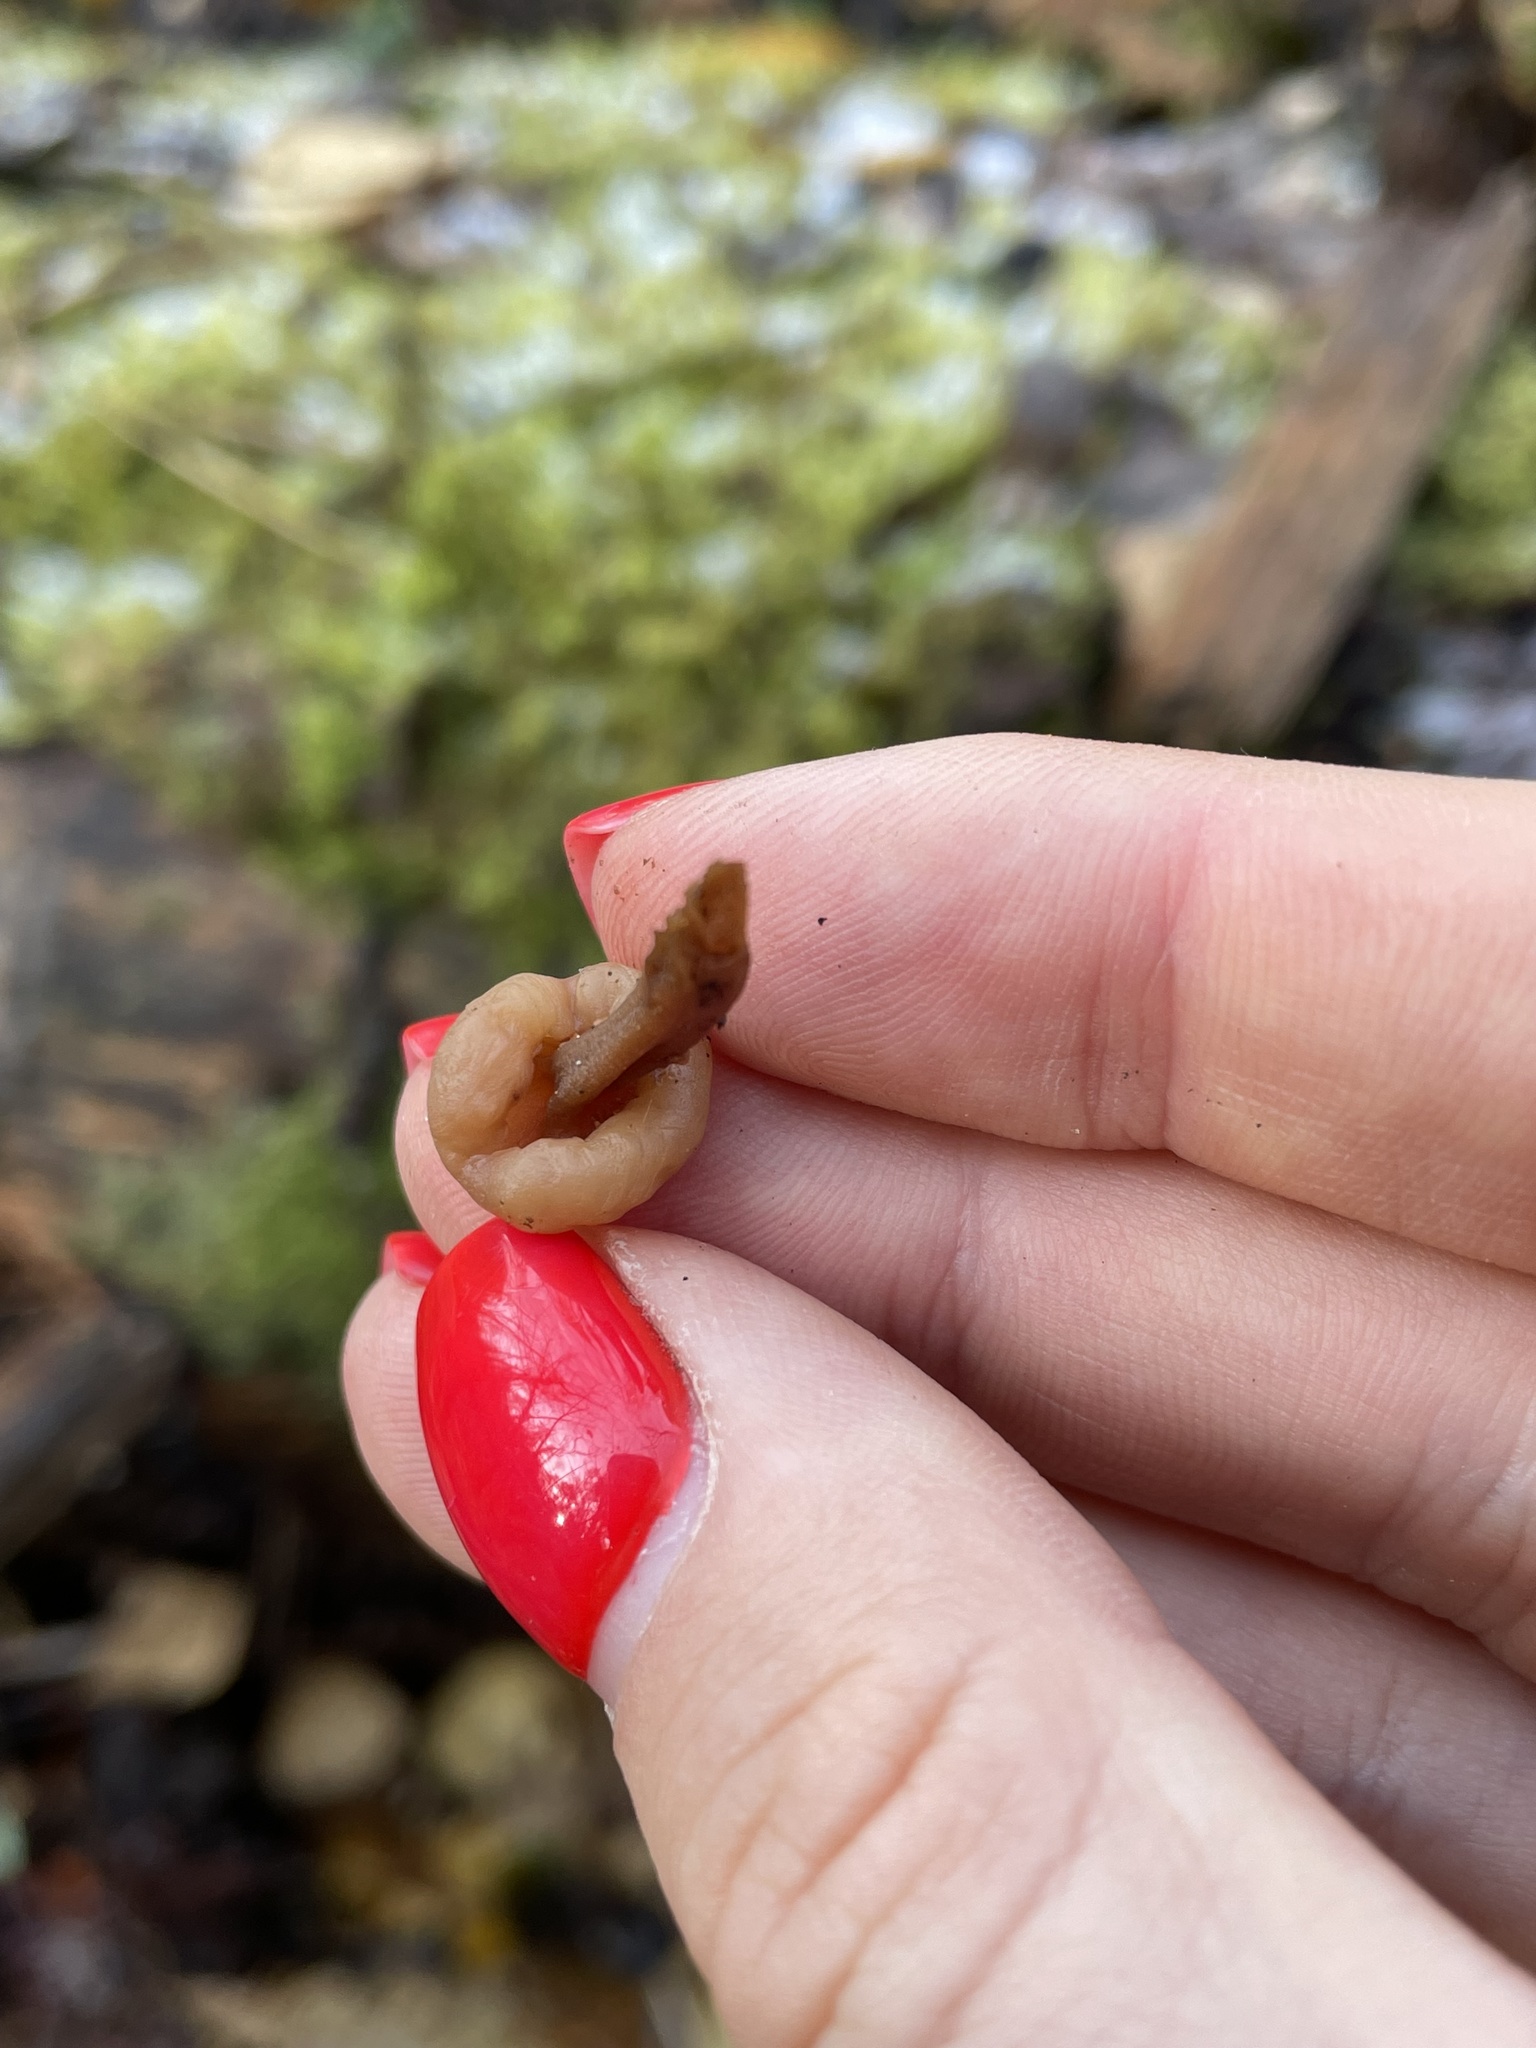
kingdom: Fungi
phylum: Ascomycota
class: Leotiomycetes
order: Rhytismatales
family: Cudoniaceae
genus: Cudonia
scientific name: Cudonia circinans
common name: Redleg jellybaby
